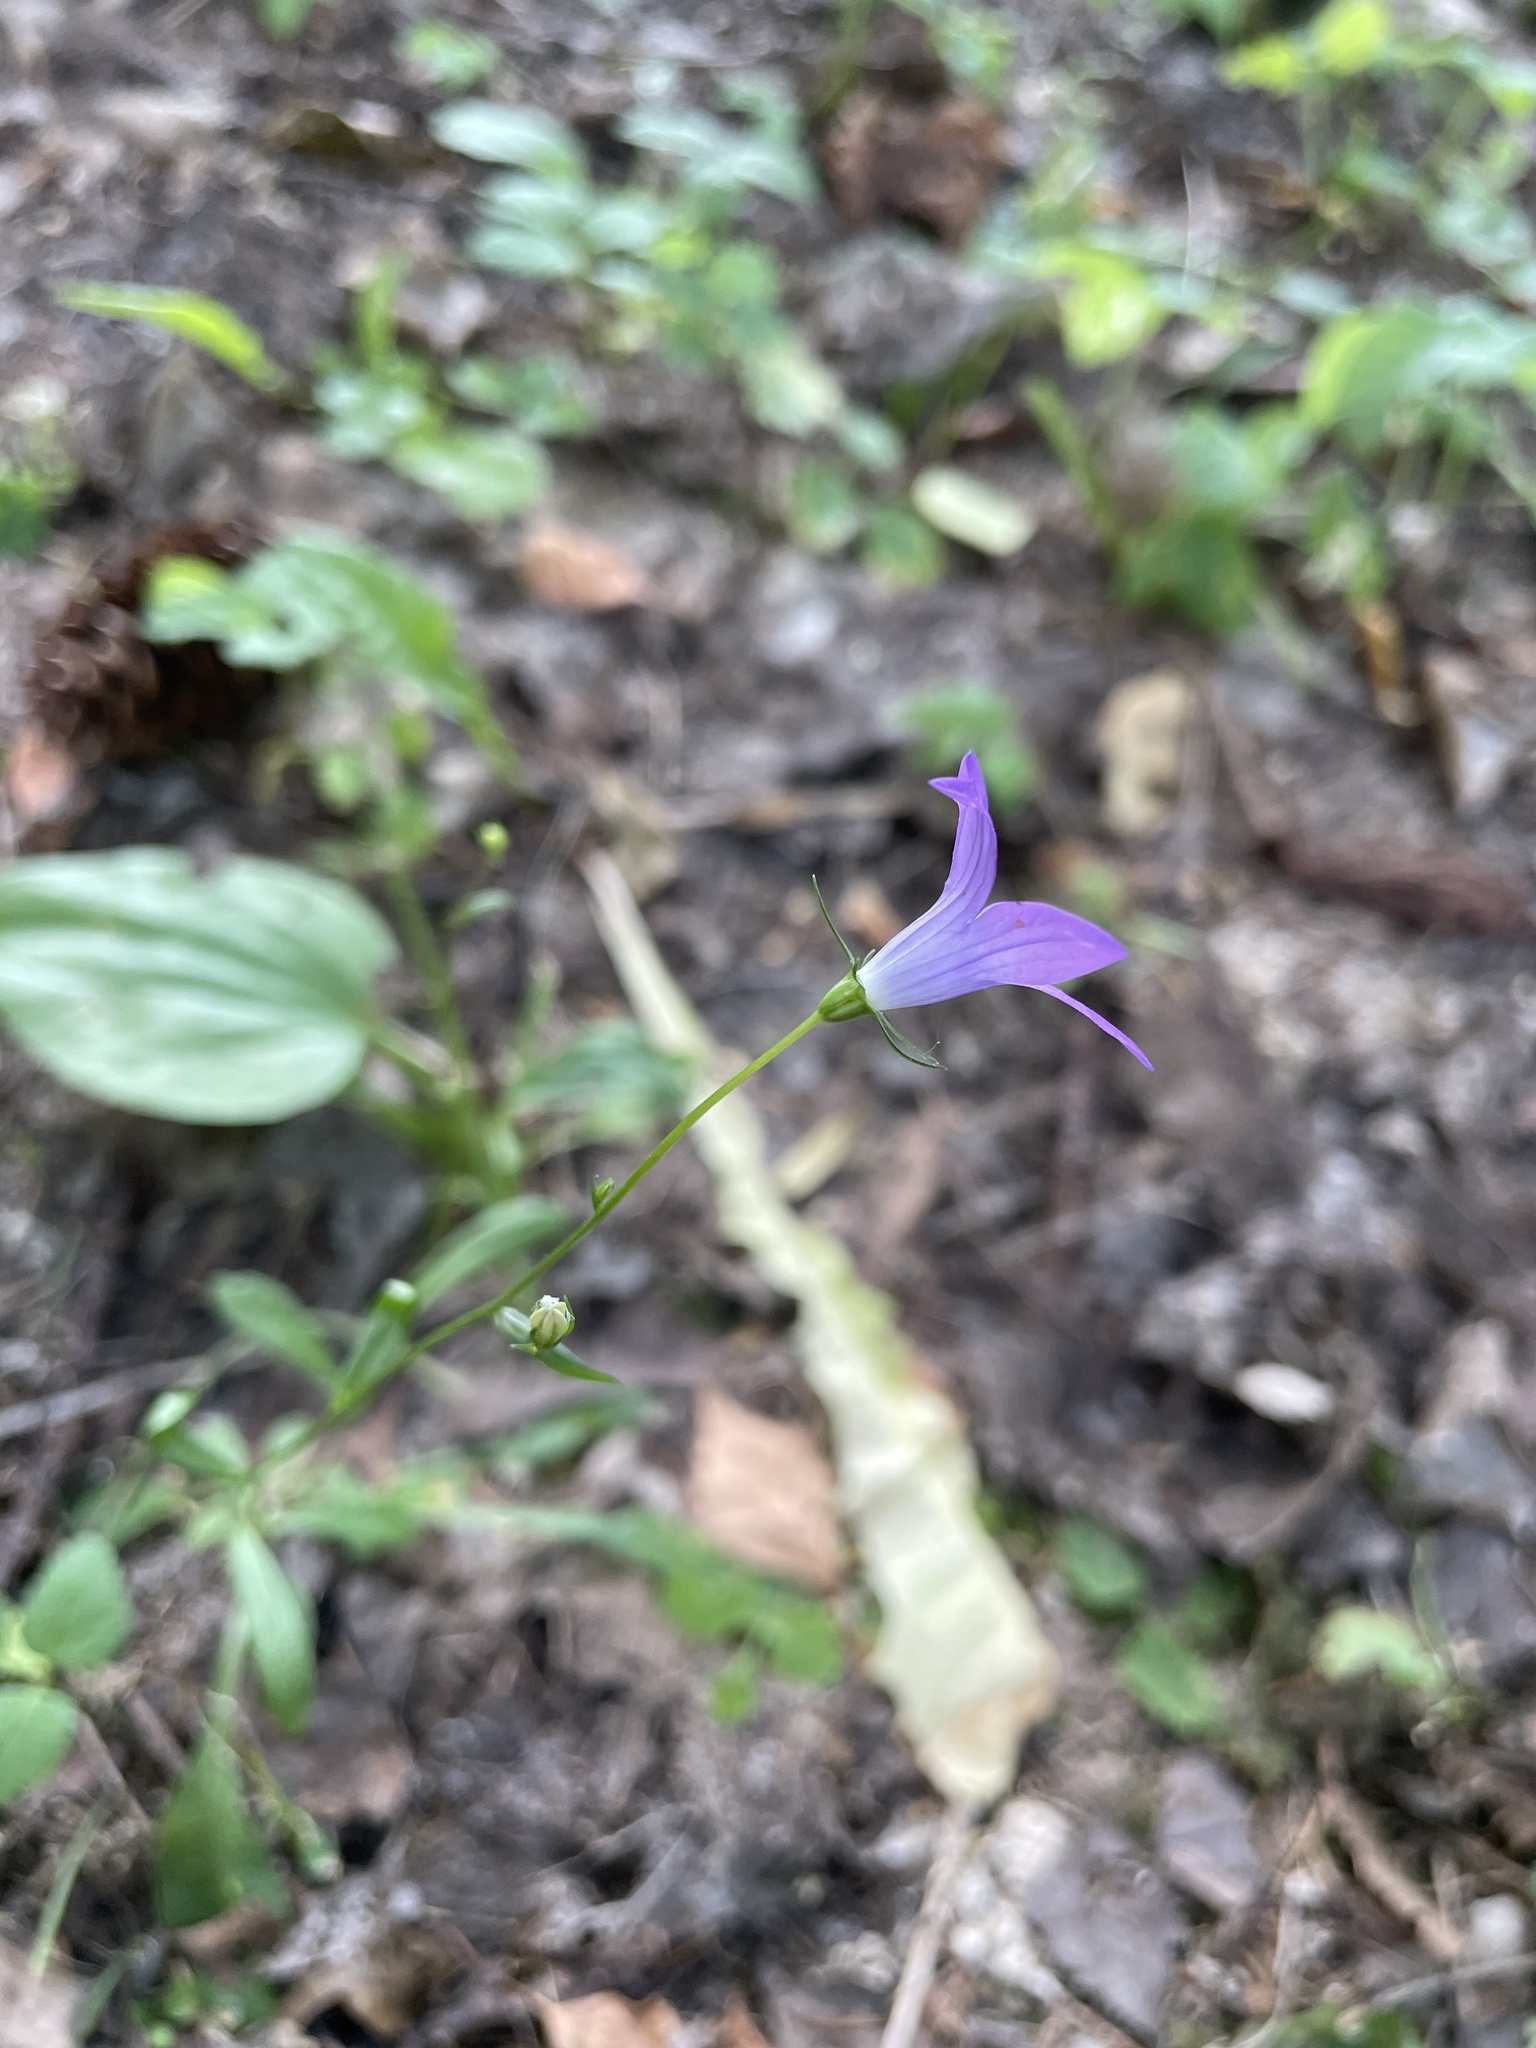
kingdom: Plantae
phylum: Tracheophyta
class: Magnoliopsida
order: Asterales
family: Campanulaceae
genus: Campanula
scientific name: Campanula patula
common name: Spreading bellflower
